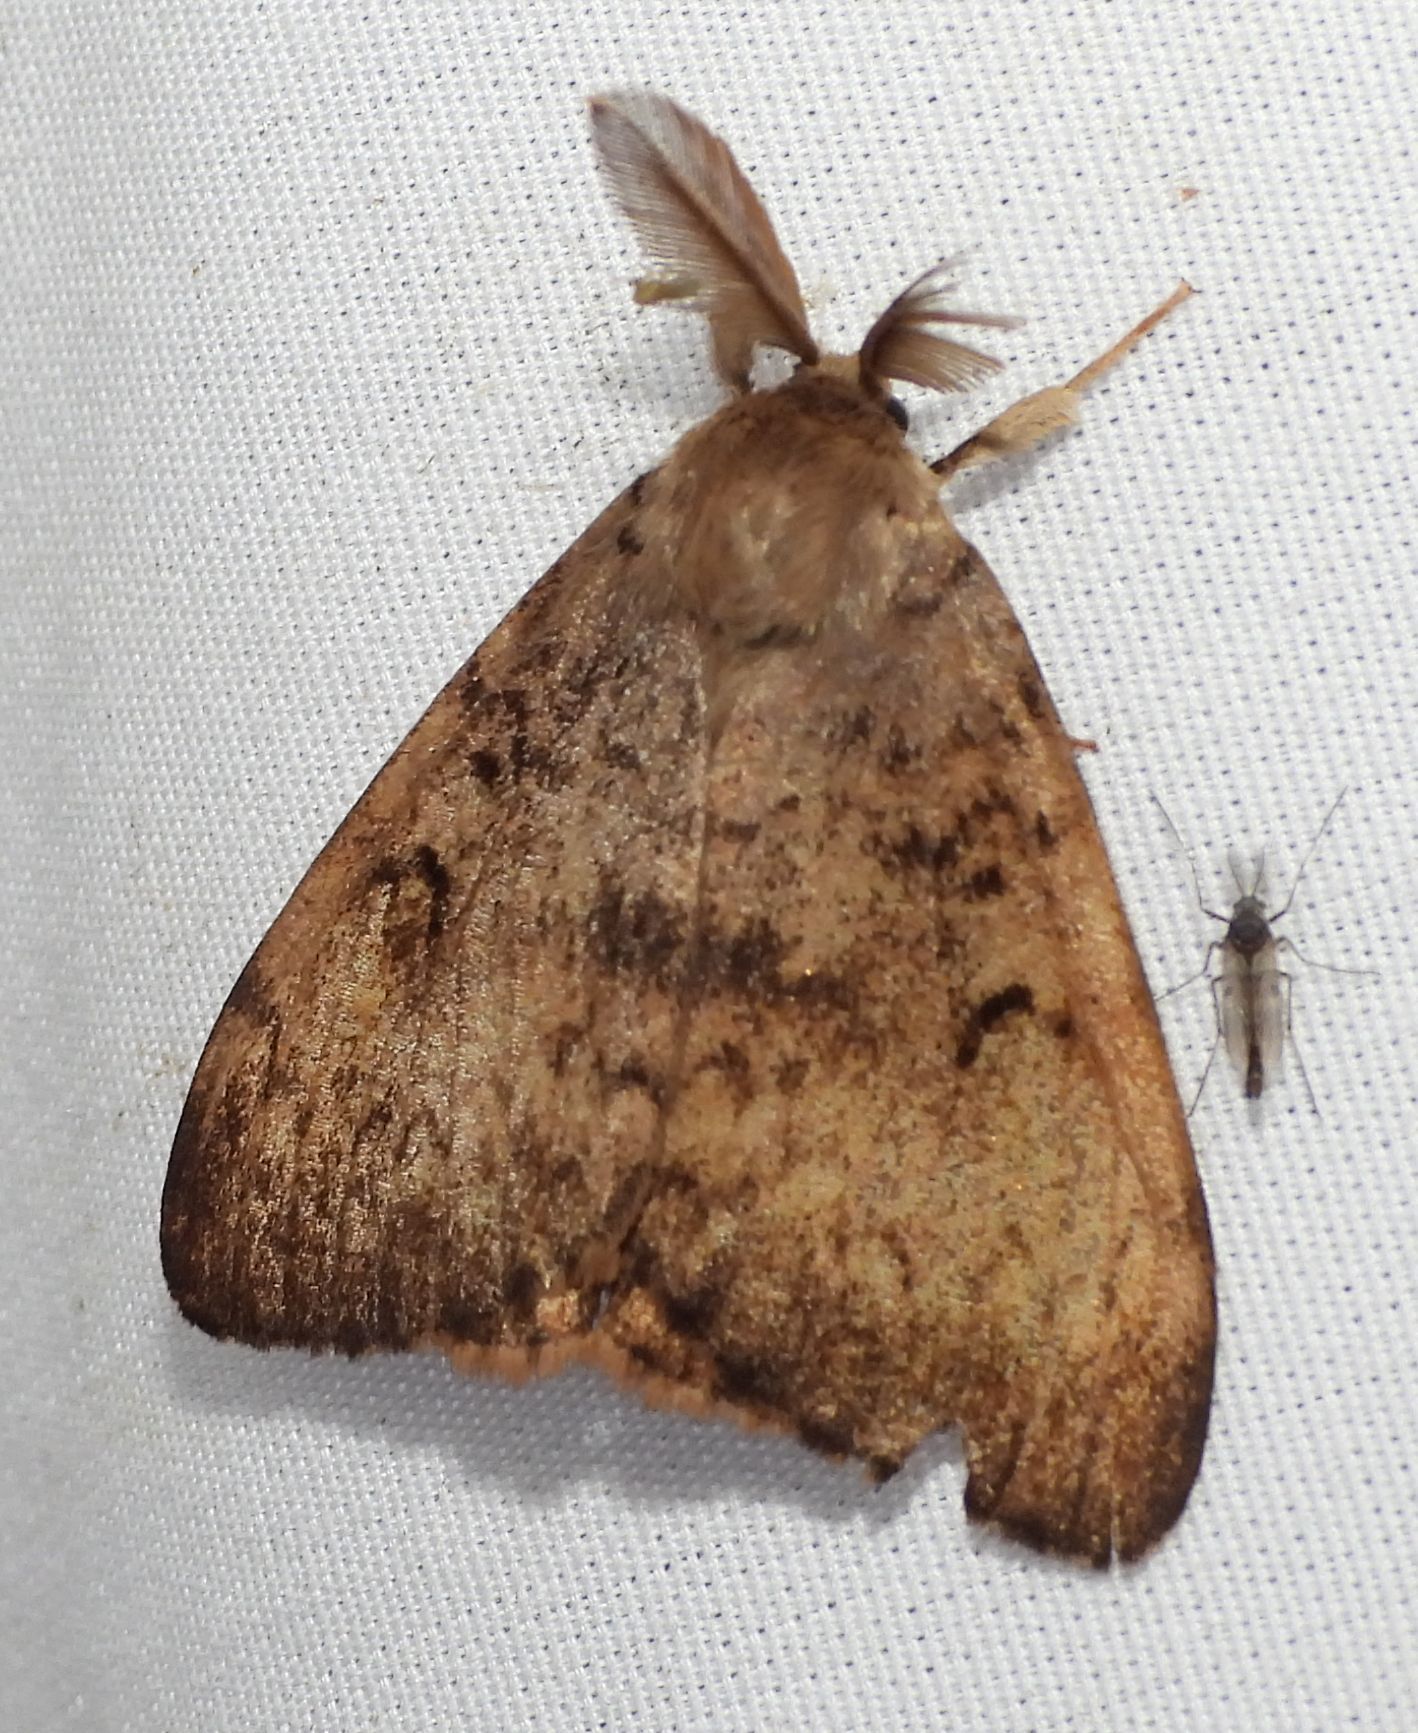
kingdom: Animalia
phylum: Arthropoda
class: Insecta
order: Lepidoptera
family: Erebidae
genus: Lymantria
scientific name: Lymantria dispar
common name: Gypsy moth
